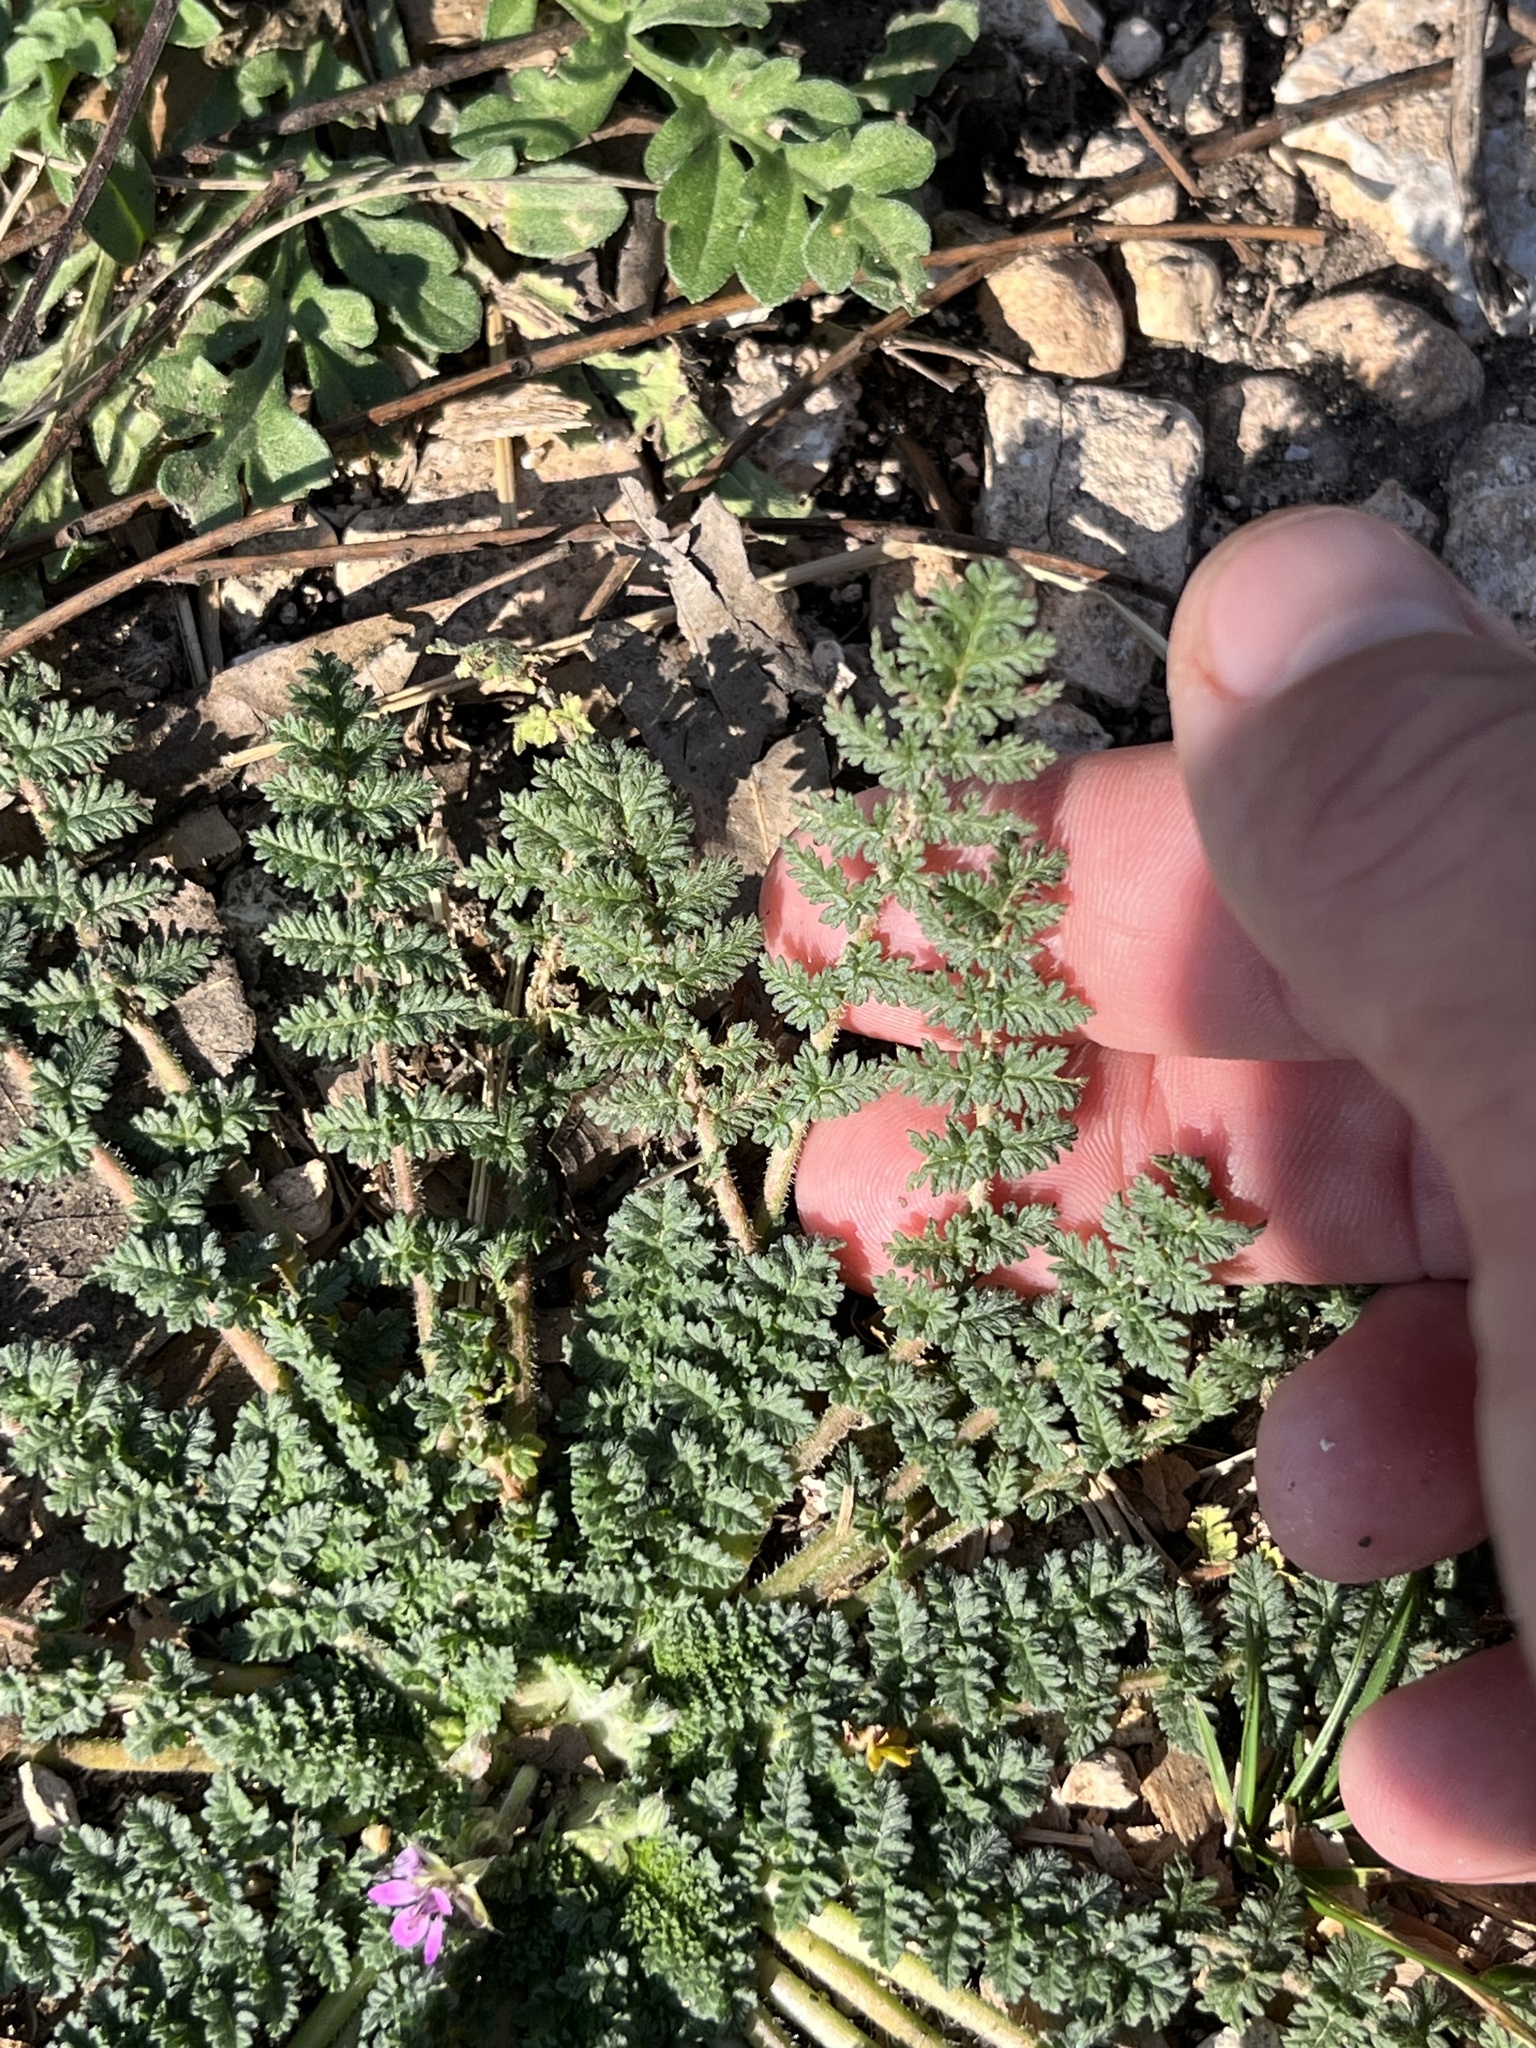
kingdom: Plantae
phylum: Tracheophyta
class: Magnoliopsida
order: Geraniales
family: Geraniaceae
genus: Erodium
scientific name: Erodium cicutarium
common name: Common stork's-bill
